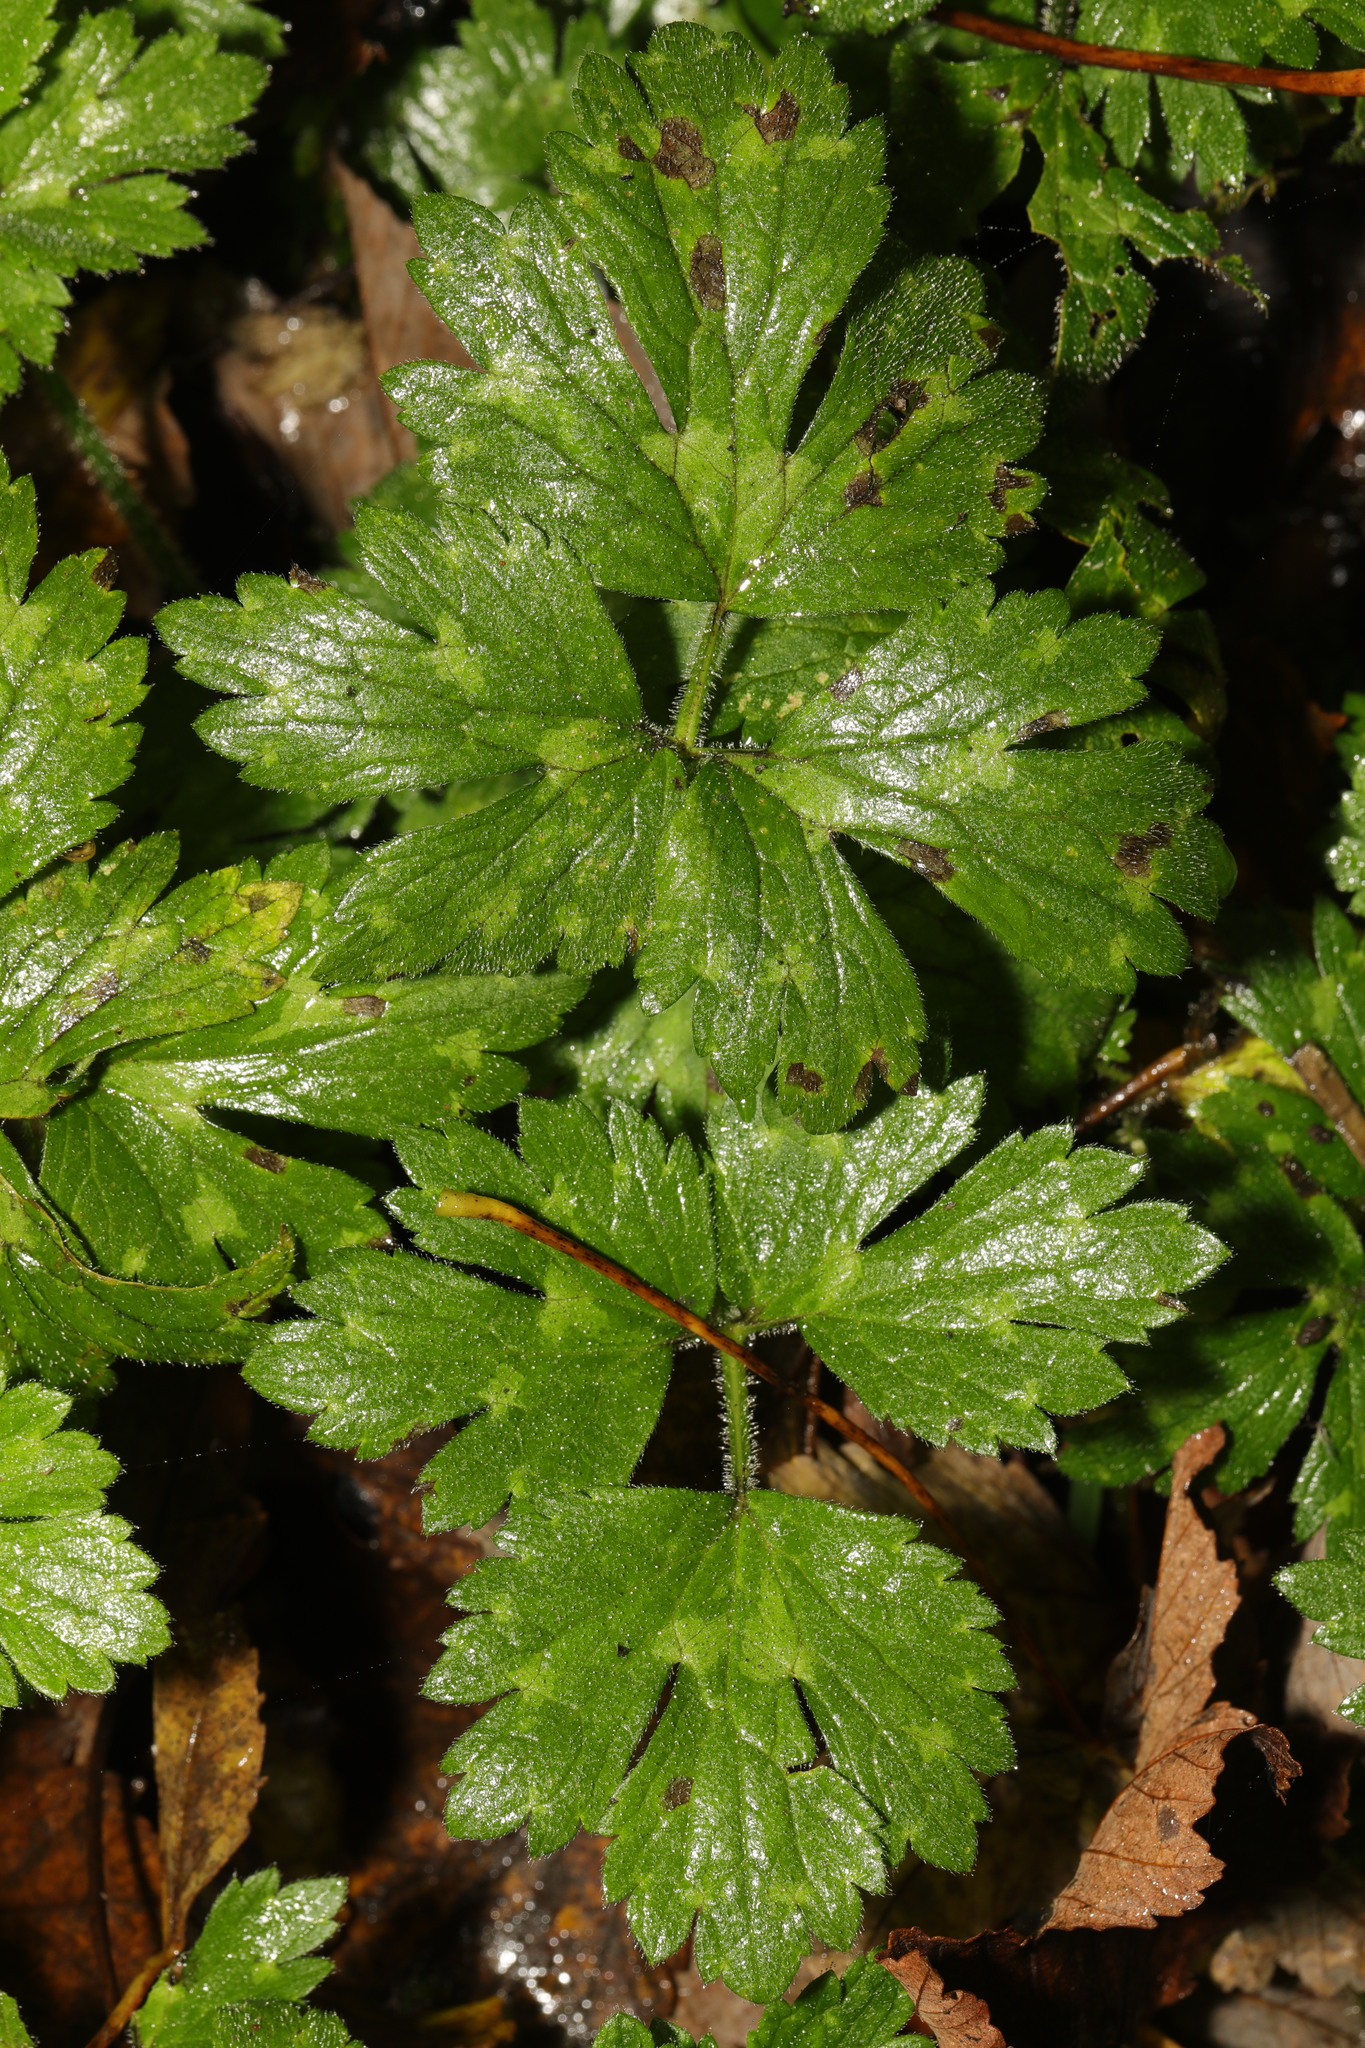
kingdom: Plantae
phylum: Tracheophyta
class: Magnoliopsida
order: Ranunculales
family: Ranunculaceae
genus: Ranunculus
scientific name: Ranunculus repens
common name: Creeping buttercup
